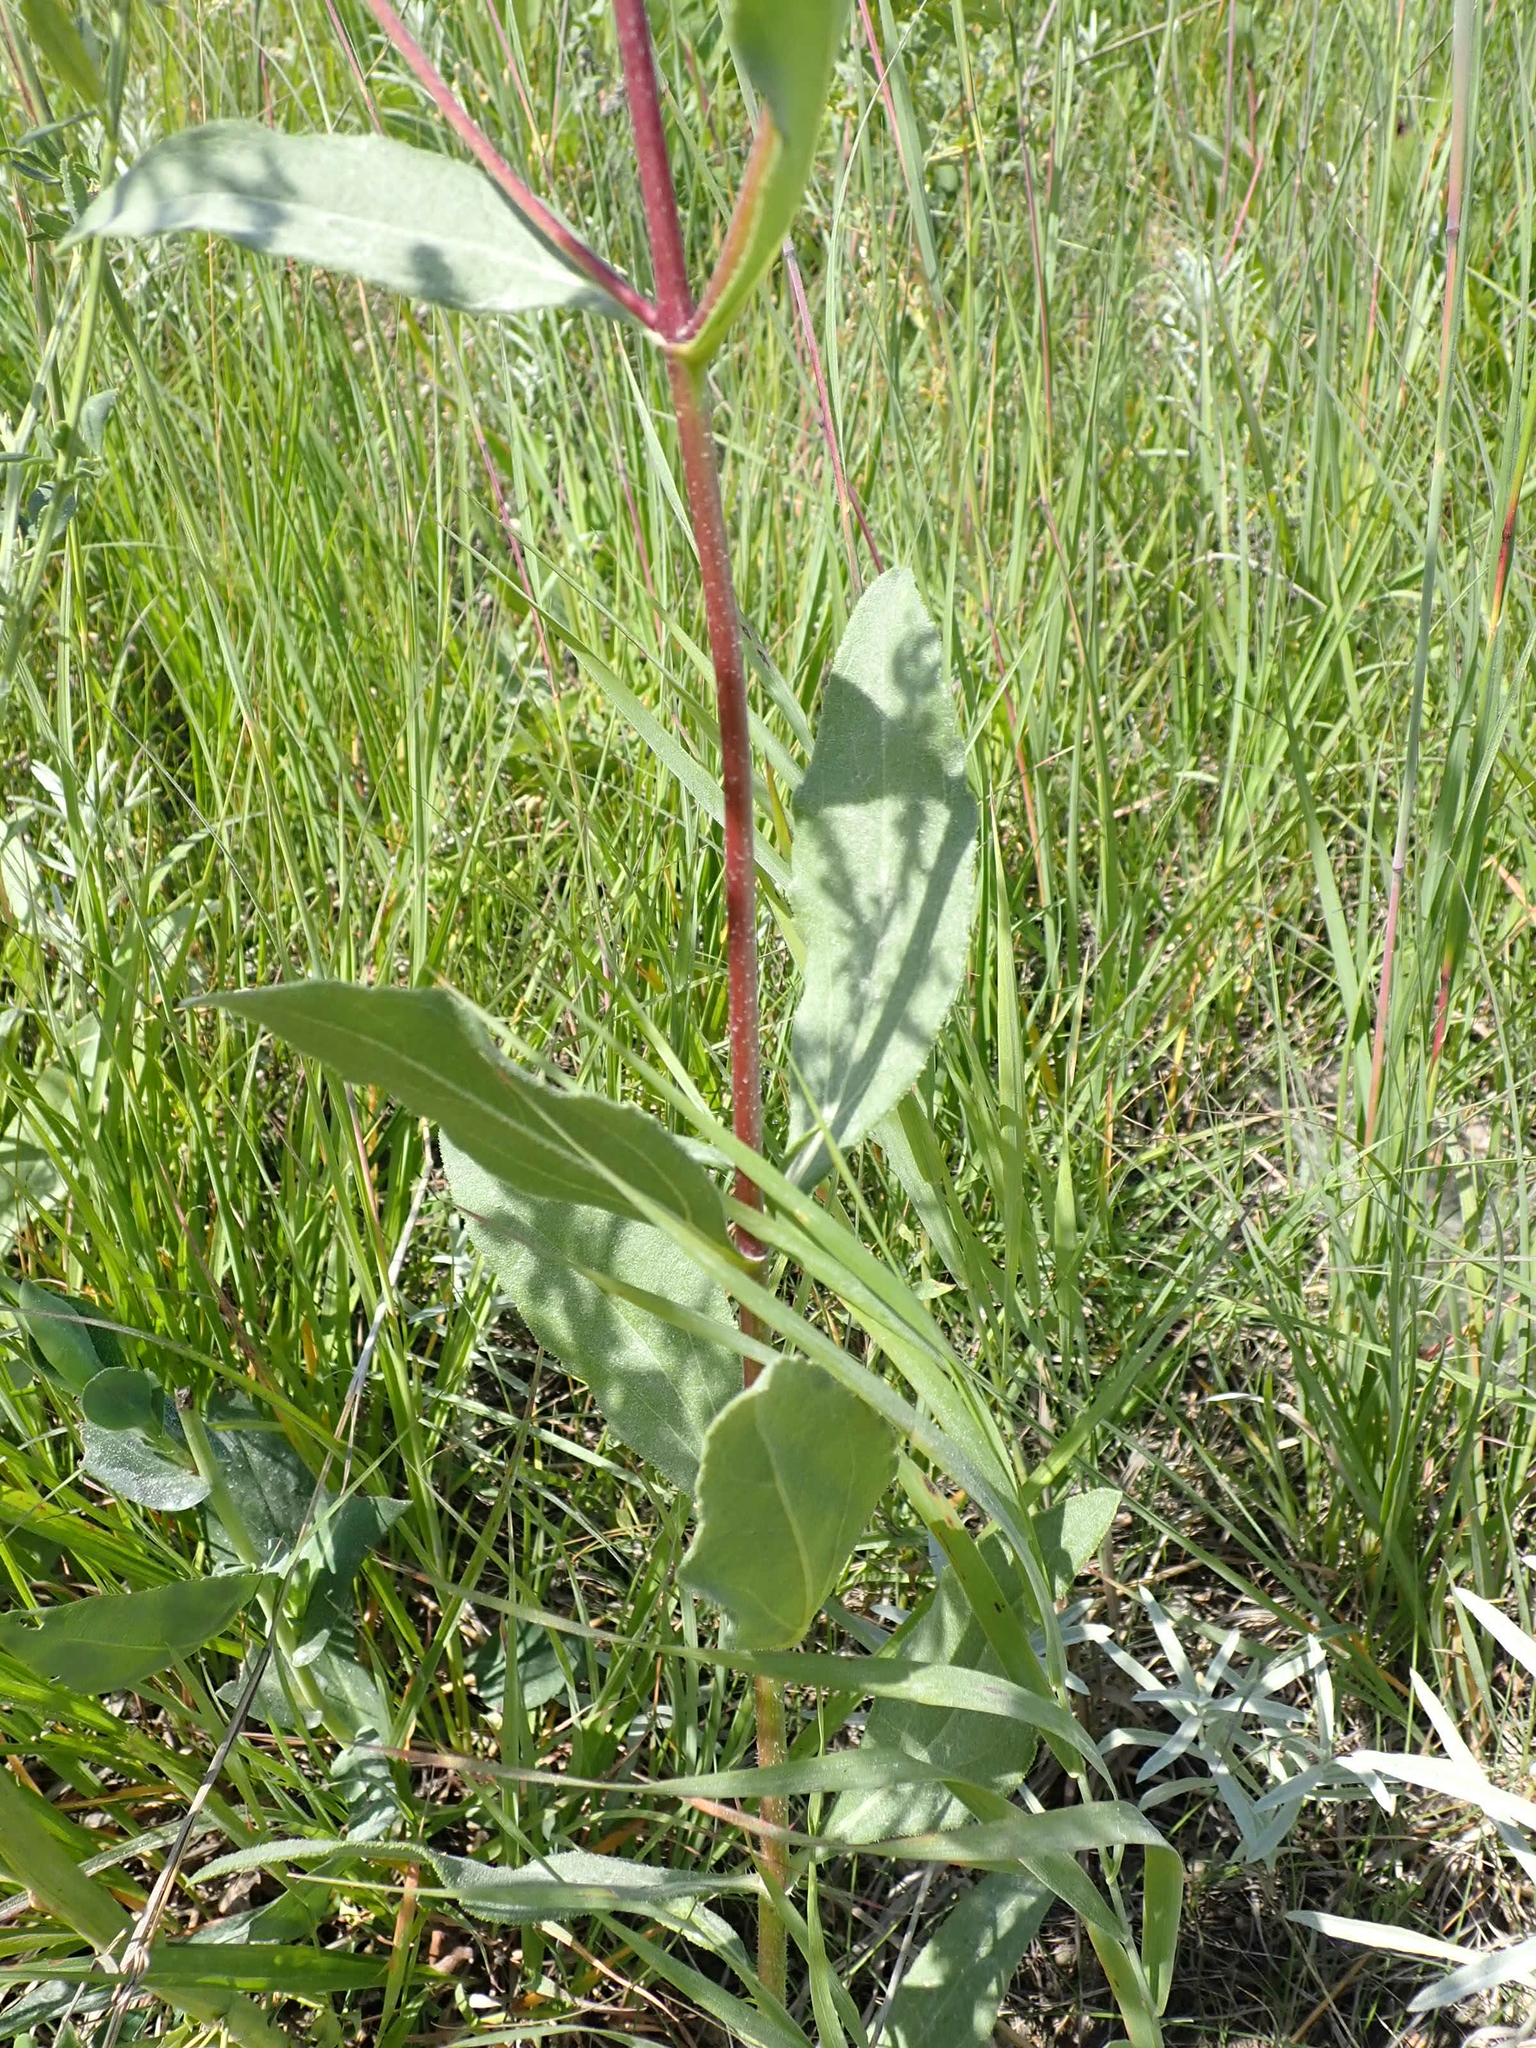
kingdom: Plantae
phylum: Tracheophyta
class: Magnoliopsida
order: Asterales
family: Asteraceae
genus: Helianthus
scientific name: Helianthus pauciflorus
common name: Stiff sunflower
